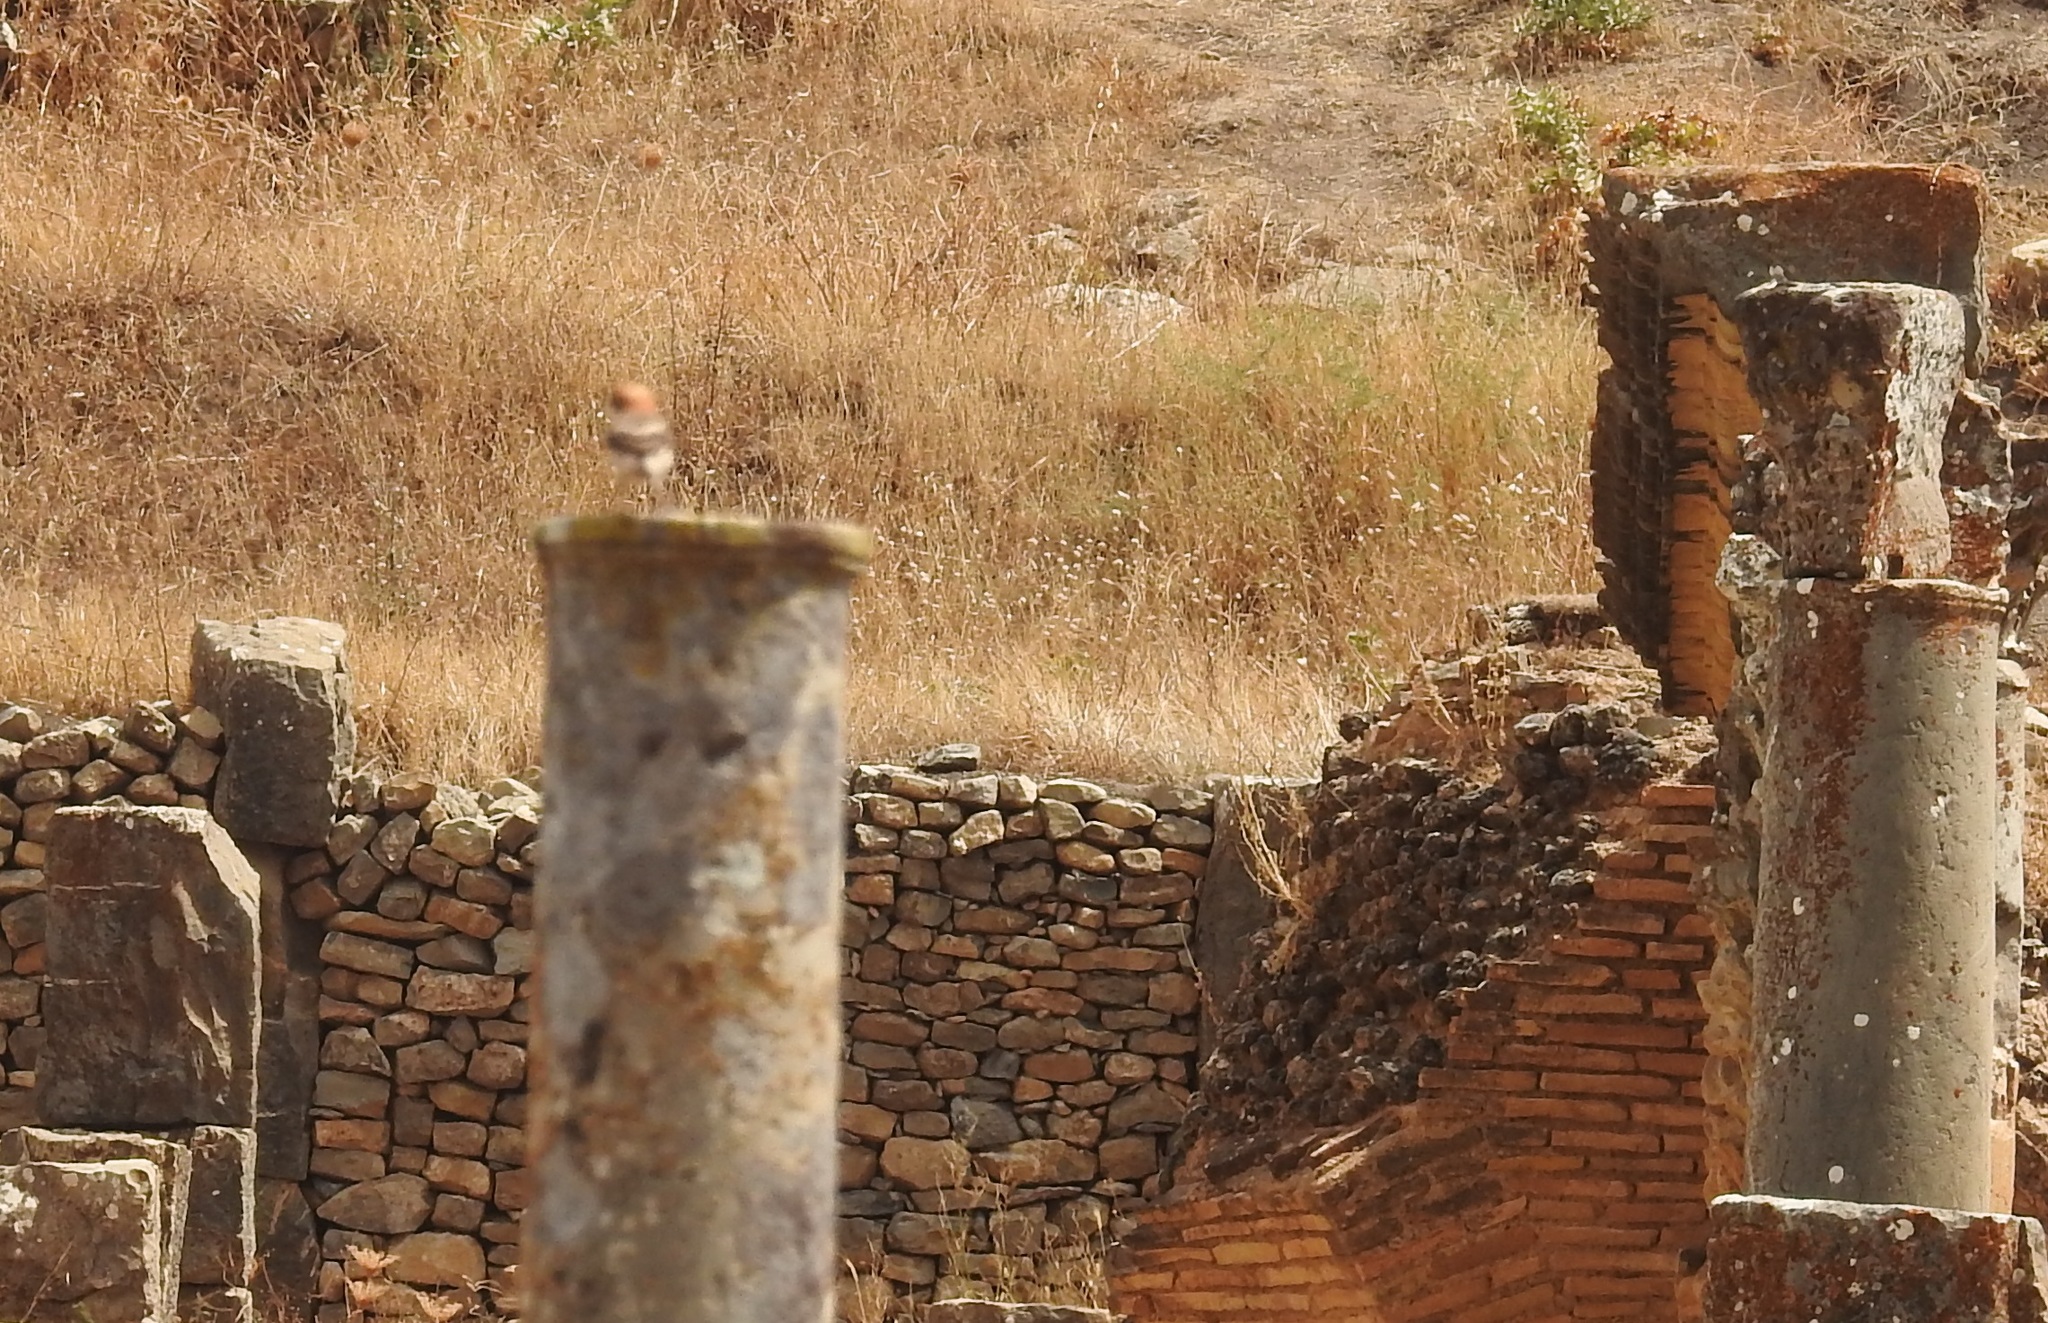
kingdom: Animalia
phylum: Chordata
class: Aves
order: Passeriformes
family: Laniidae
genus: Lanius
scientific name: Lanius senator
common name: Woodchat shrike
